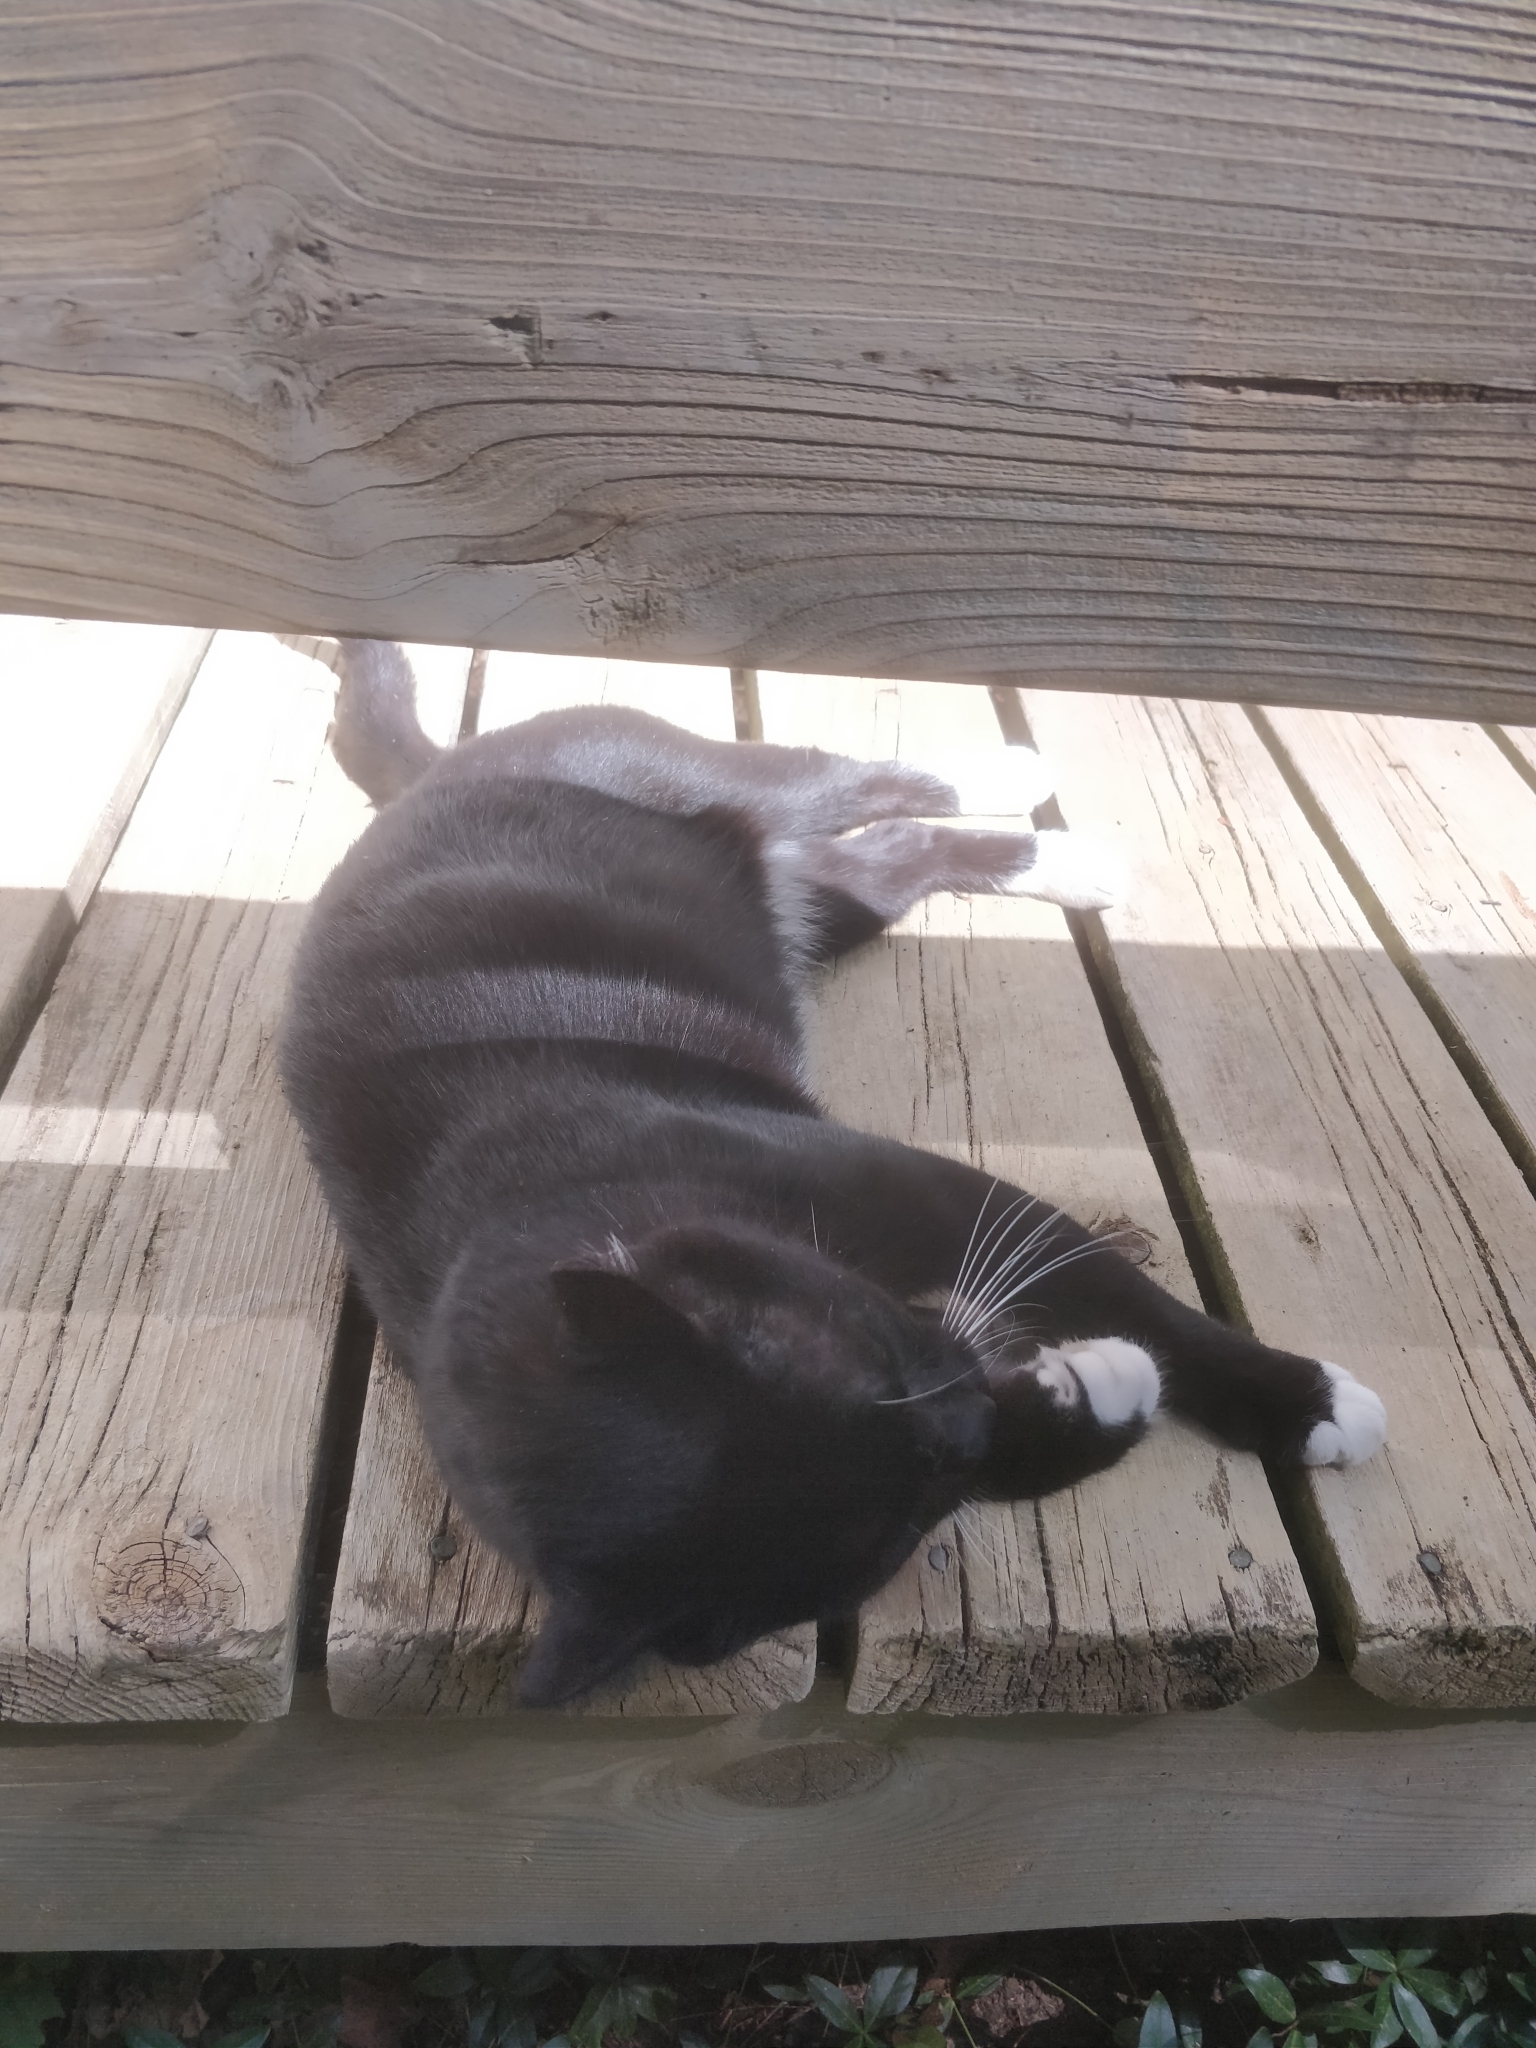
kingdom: Animalia
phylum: Chordata
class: Mammalia
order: Carnivora
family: Felidae
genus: Felis
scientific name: Felis catus
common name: Domestic cat
